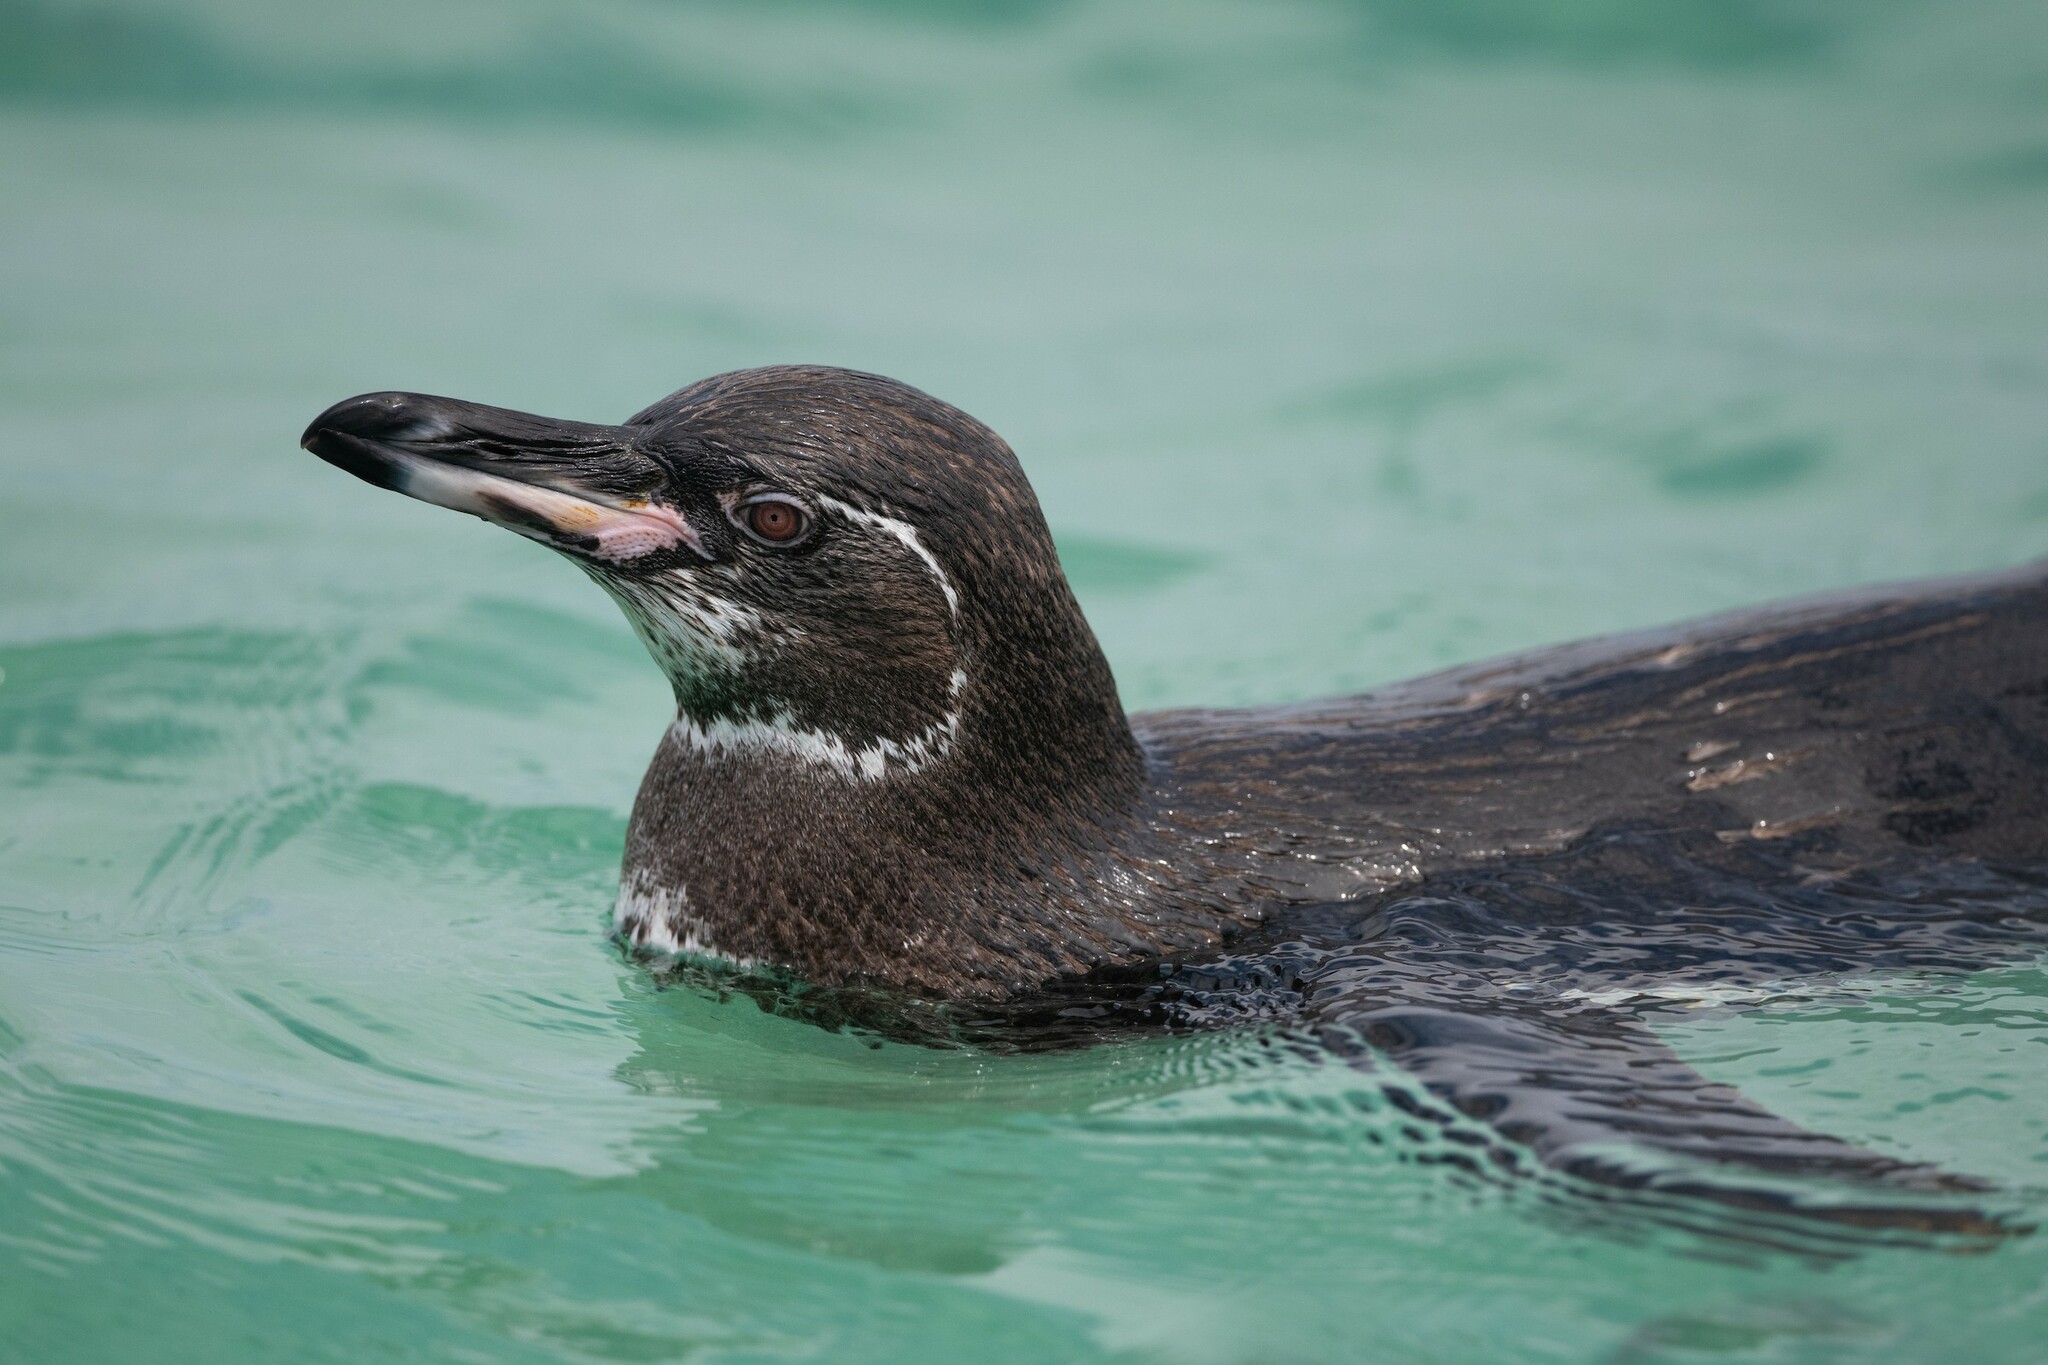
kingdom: Animalia
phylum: Chordata
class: Aves
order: Sphenisciformes
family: Spheniscidae
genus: Spheniscus
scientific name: Spheniscus mendiculus
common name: Galapagos penguin
